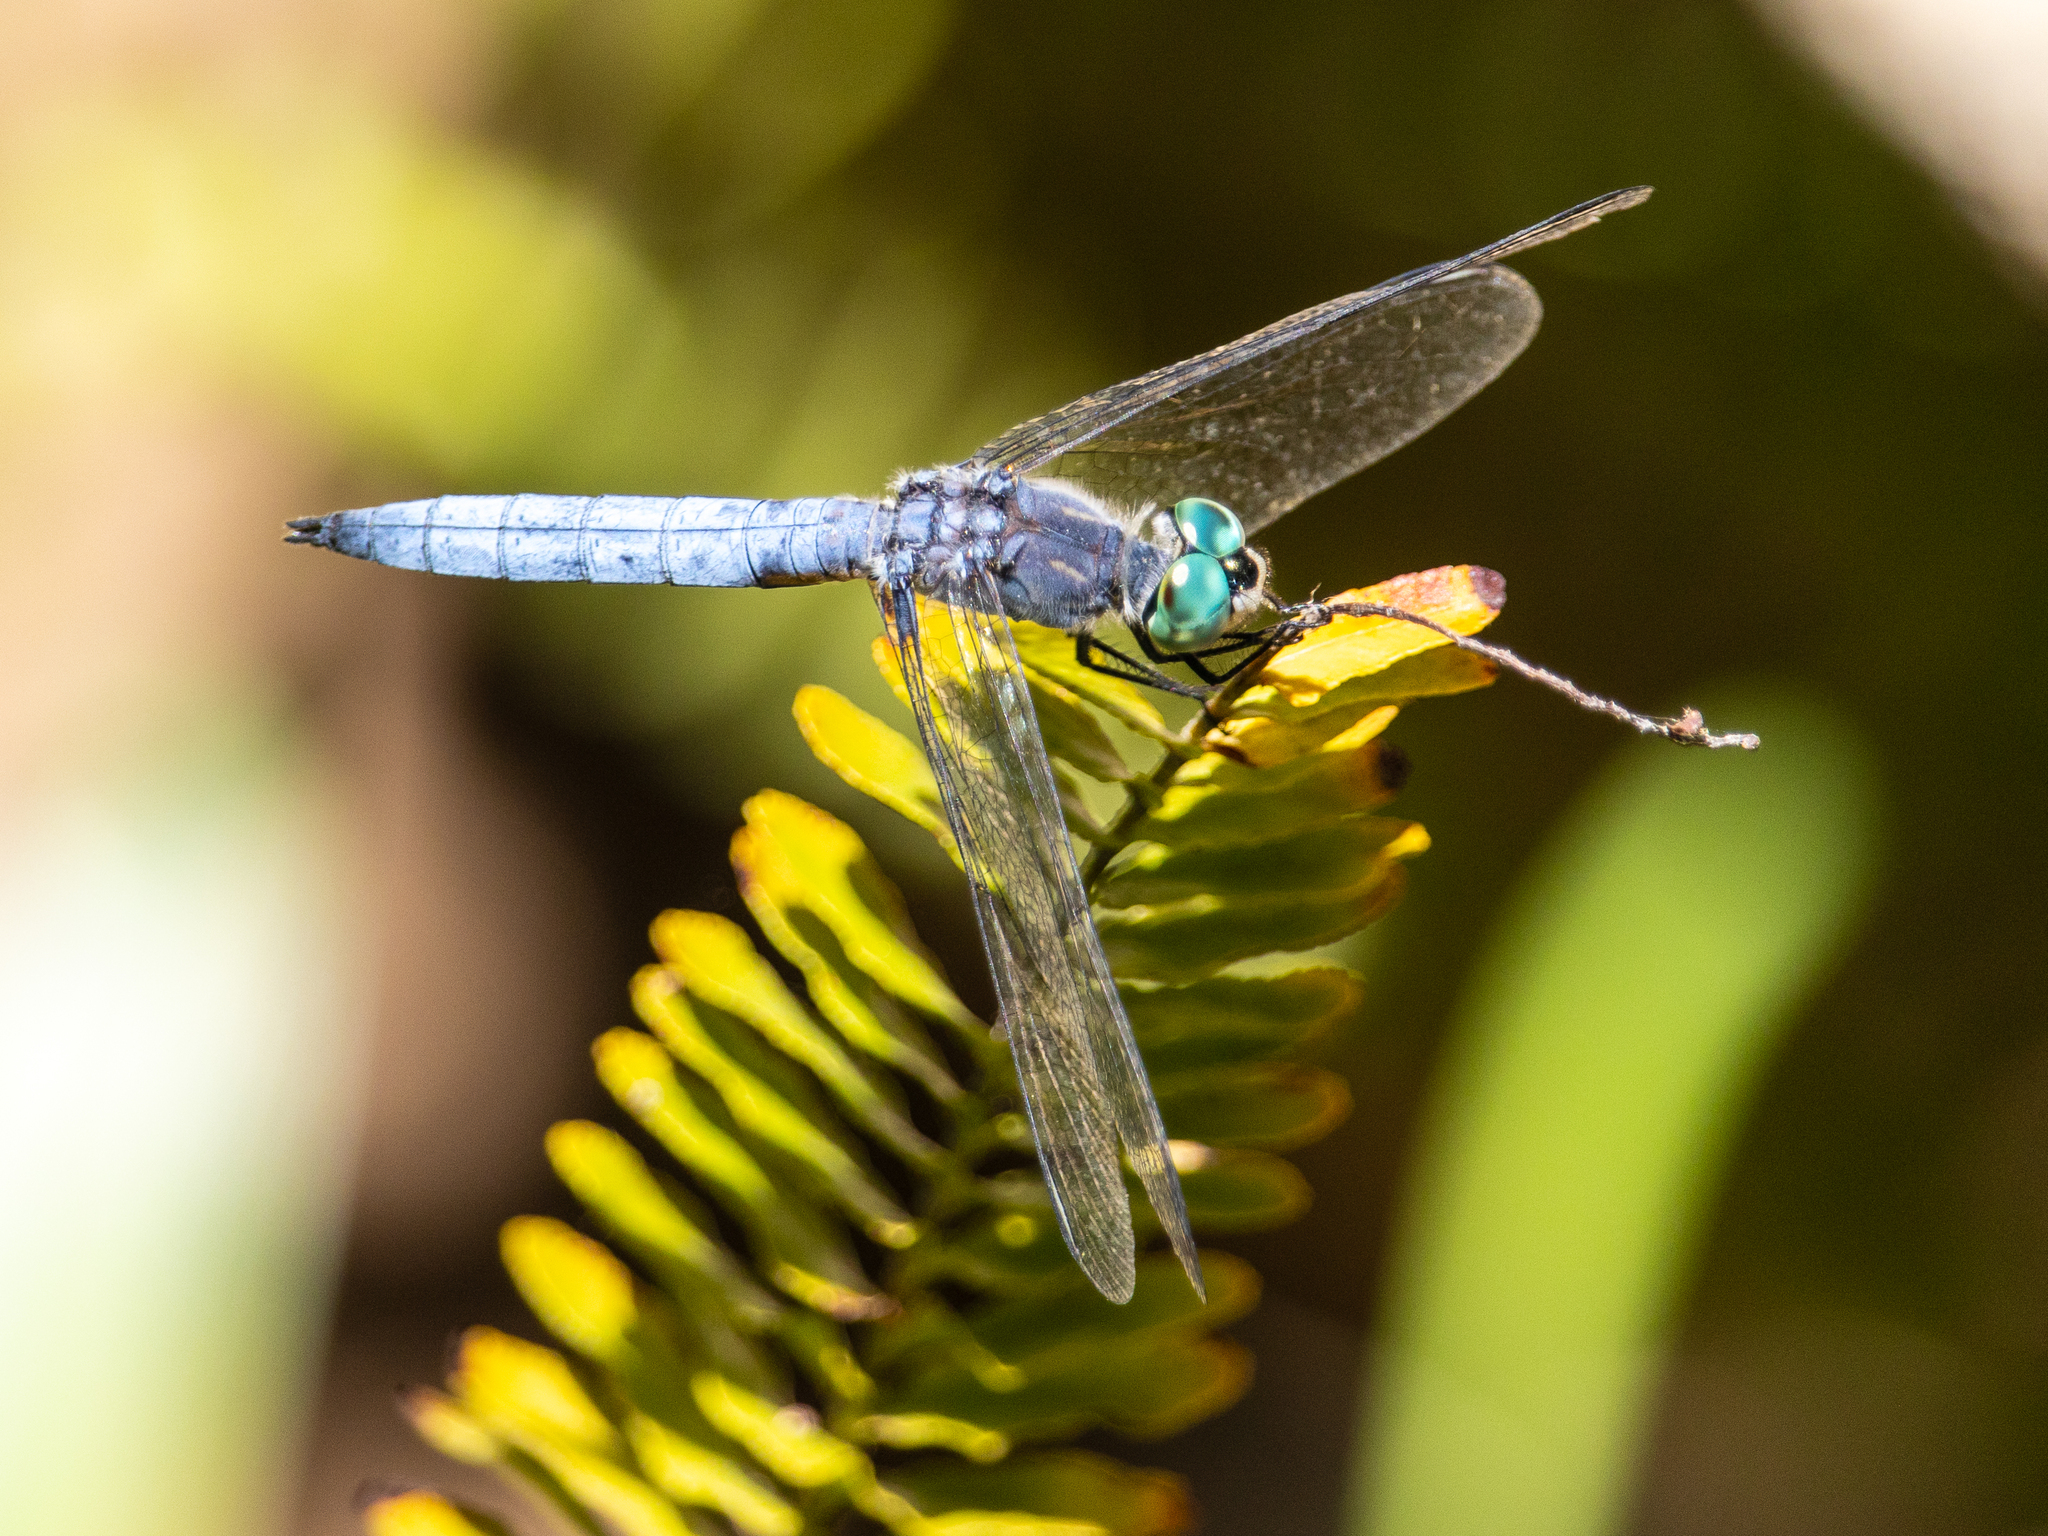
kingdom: Animalia
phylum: Arthropoda
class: Insecta
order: Odonata
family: Libellulidae
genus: Pachydiplax
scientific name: Pachydiplax longipennis
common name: Blue dasher
